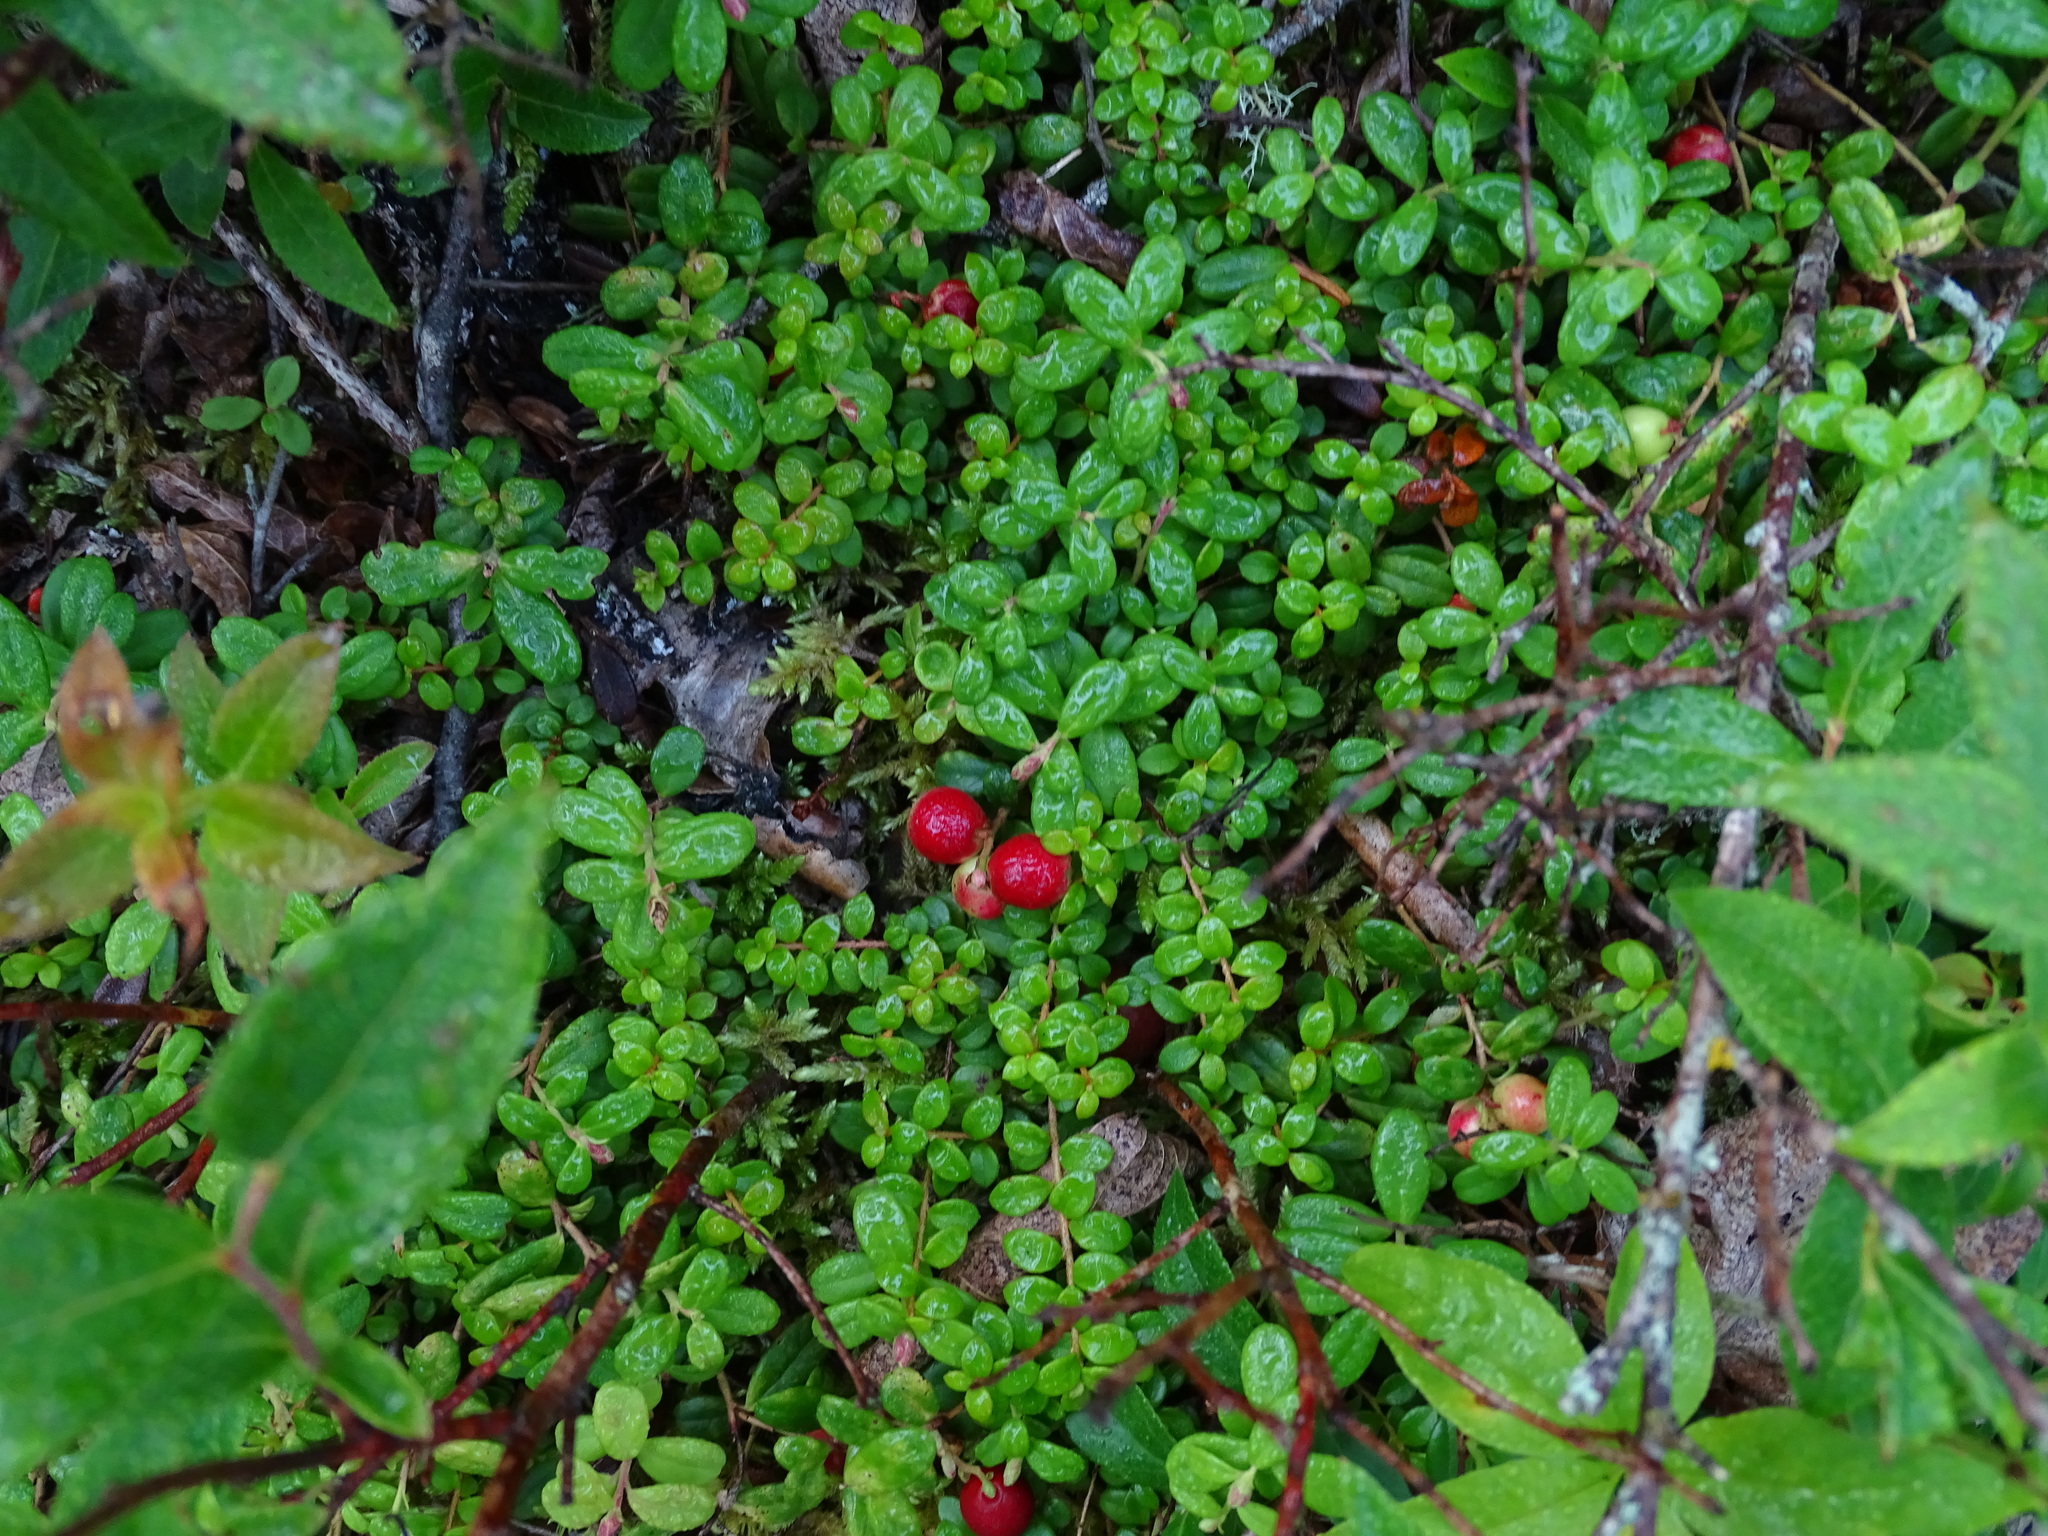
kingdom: Plantae
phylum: Tracheophyta
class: Magnoliopsida
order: Ericales
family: Ericaceae
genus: Vaccinium
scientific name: Vaccinium vitis-idaea
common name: Cowberry
